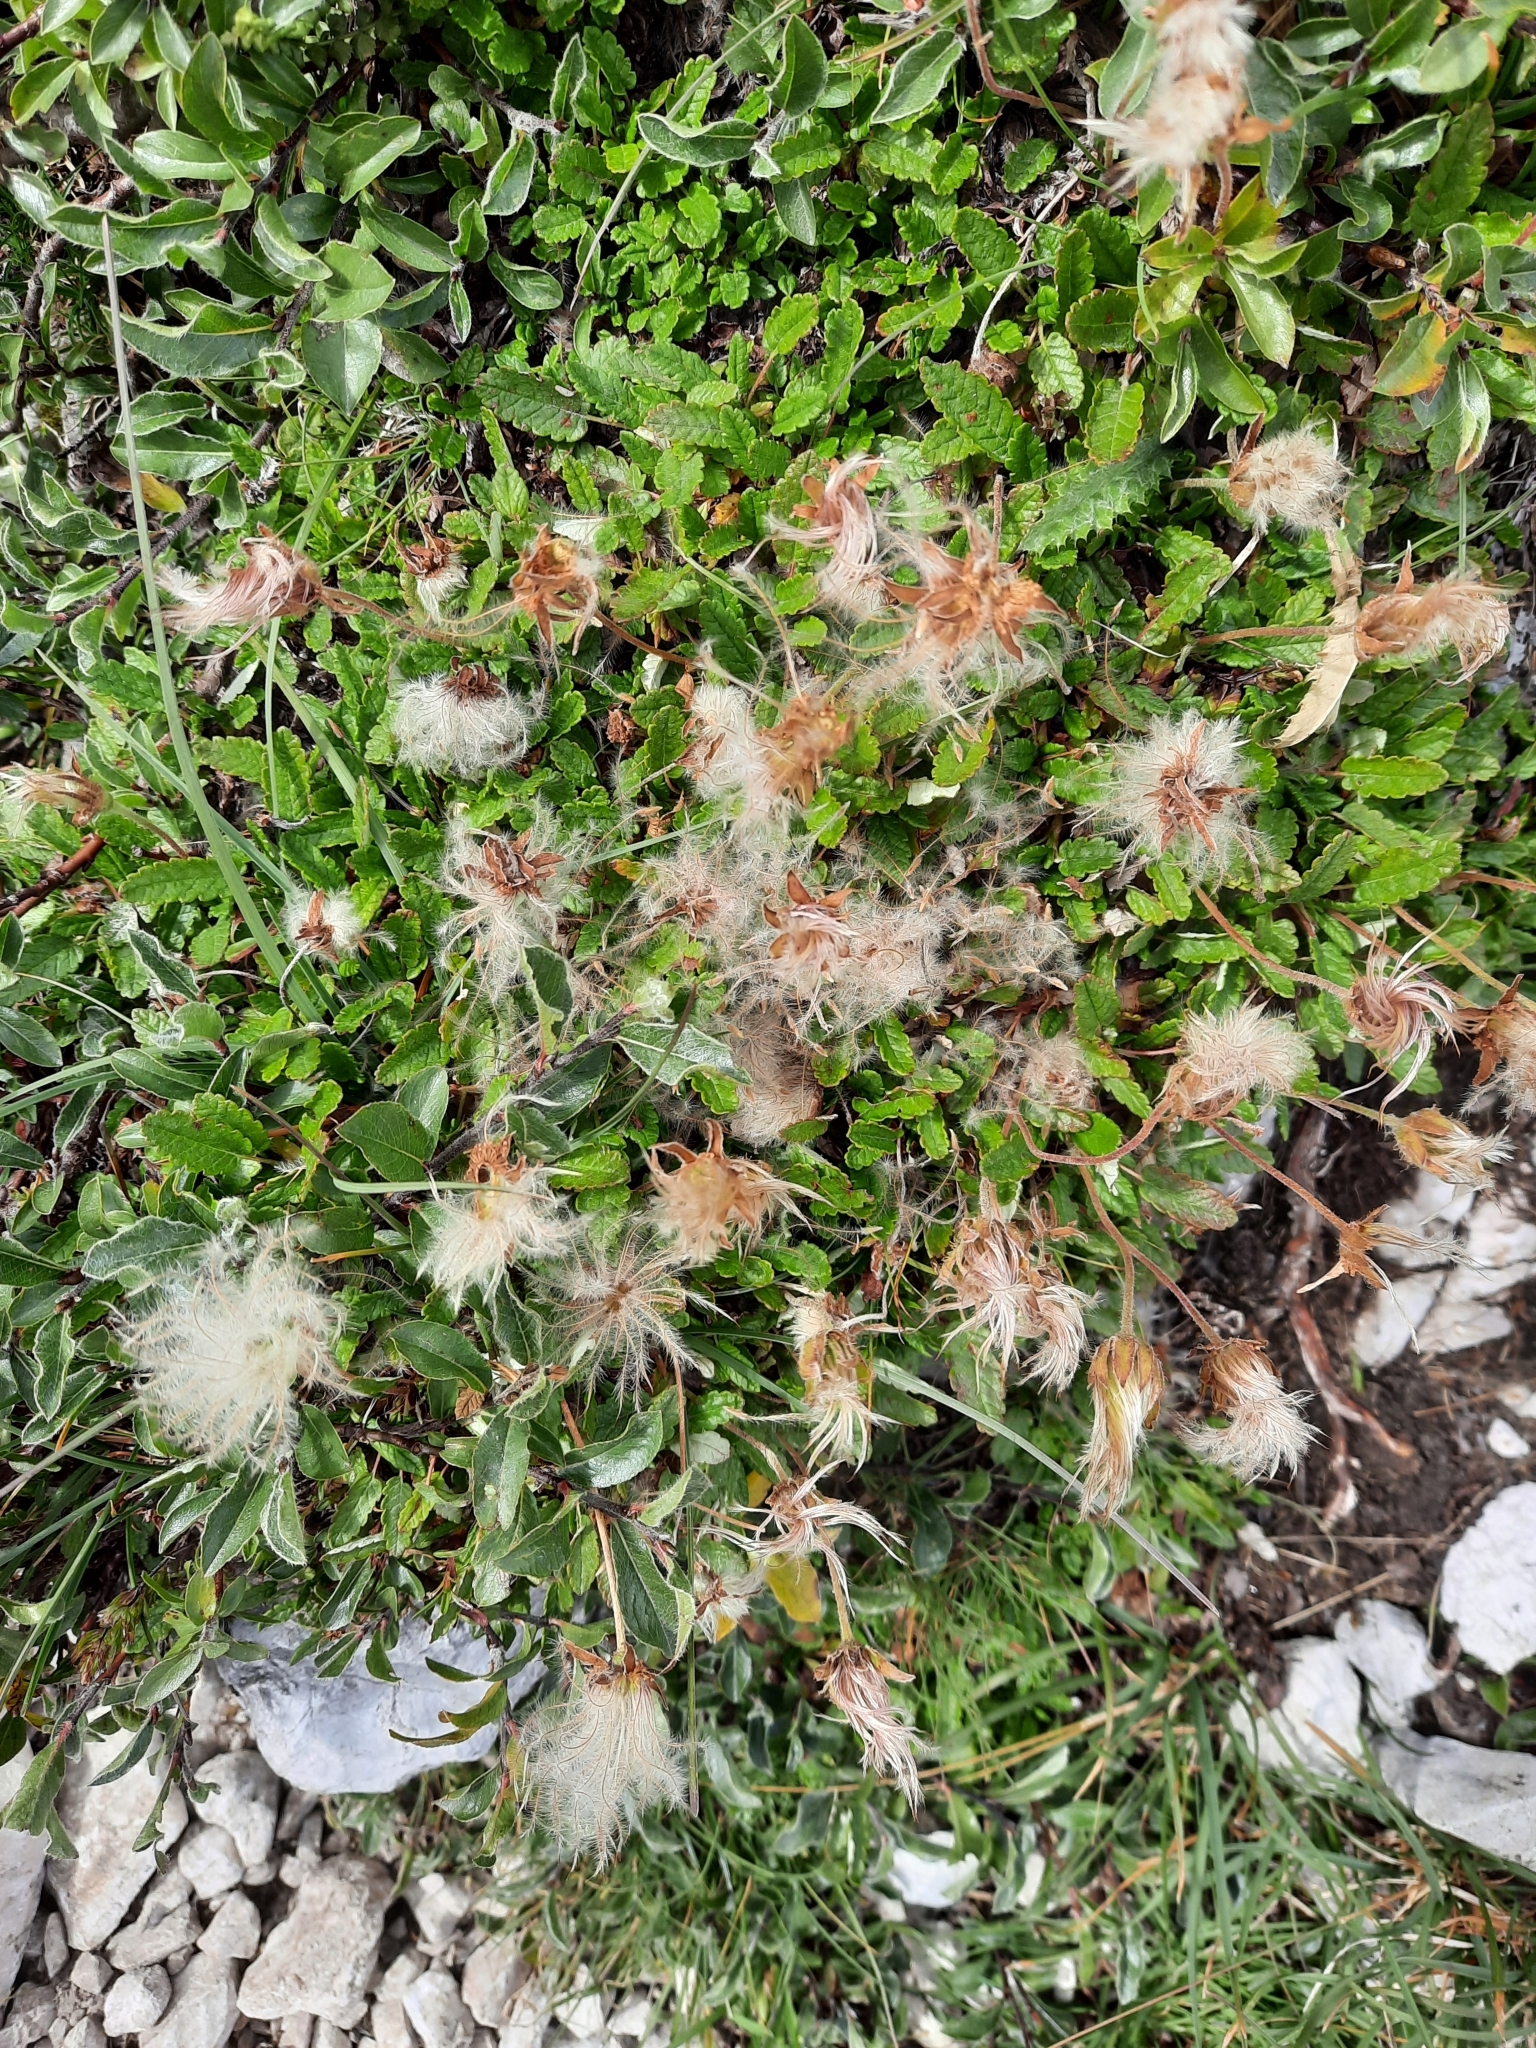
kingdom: Plantae
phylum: Tracheophyta
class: Magnoliopsida
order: Rosales
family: Rosaceae
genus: Dryas
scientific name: Dryas octopetala
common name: Eight-petal mountain-avens
